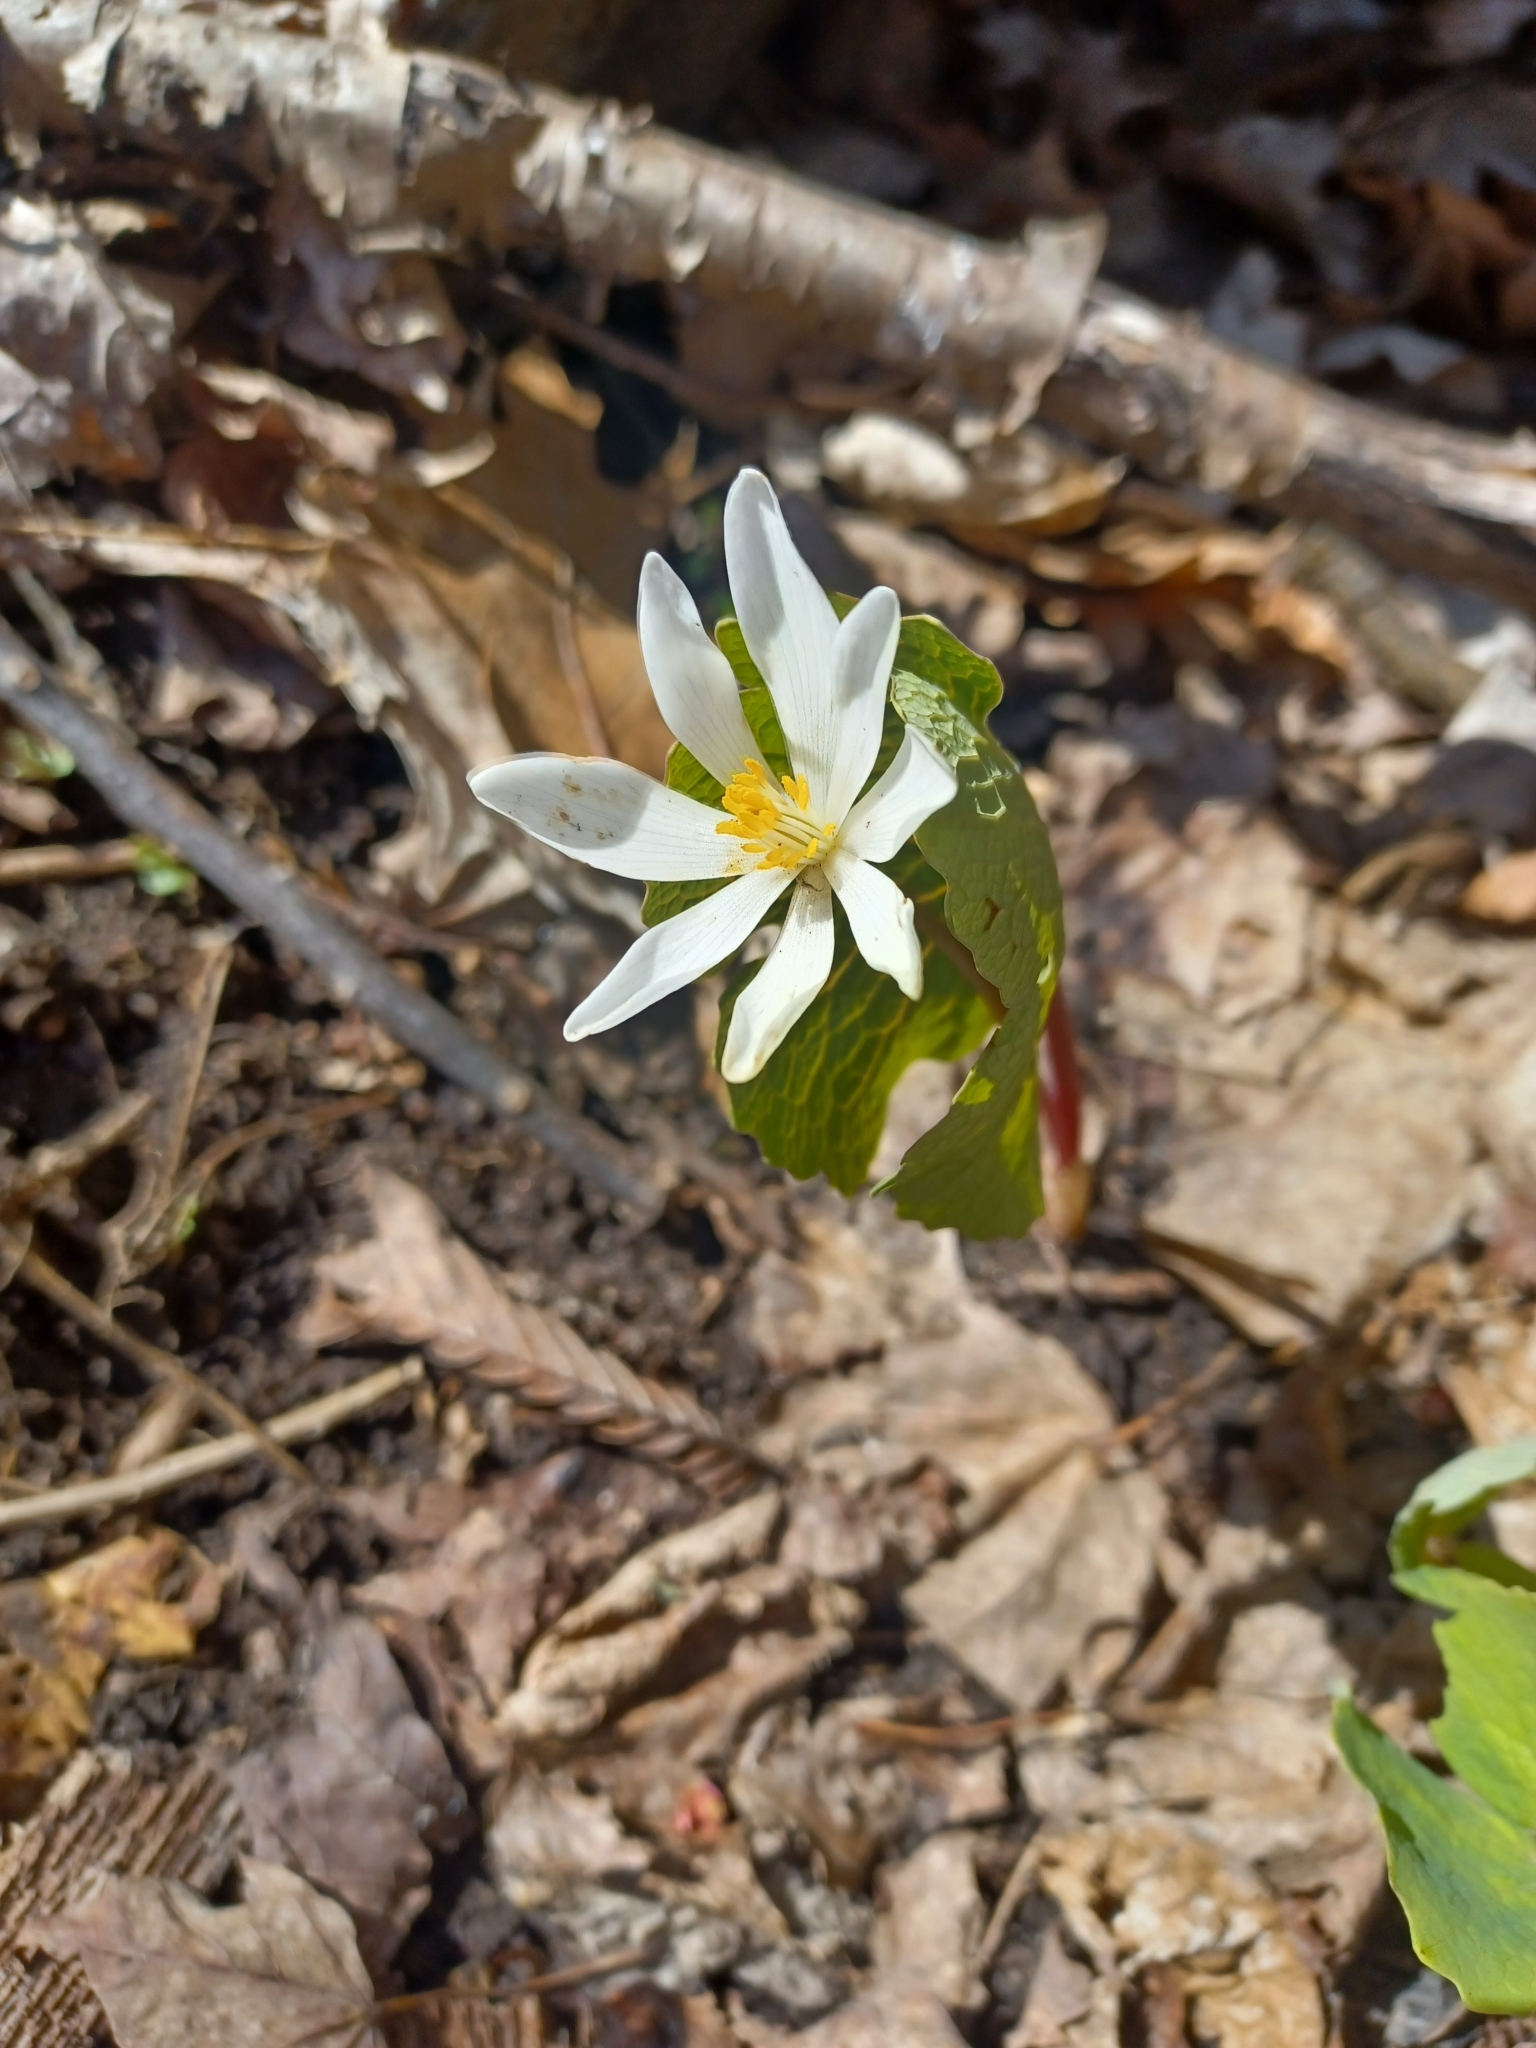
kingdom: Plantae
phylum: Tracheophyta
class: Magnoliopsida
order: Ranunculales
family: Papaveraceae
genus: Sanguinaria
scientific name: Sanguinaria canadensis
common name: Bloodroot
